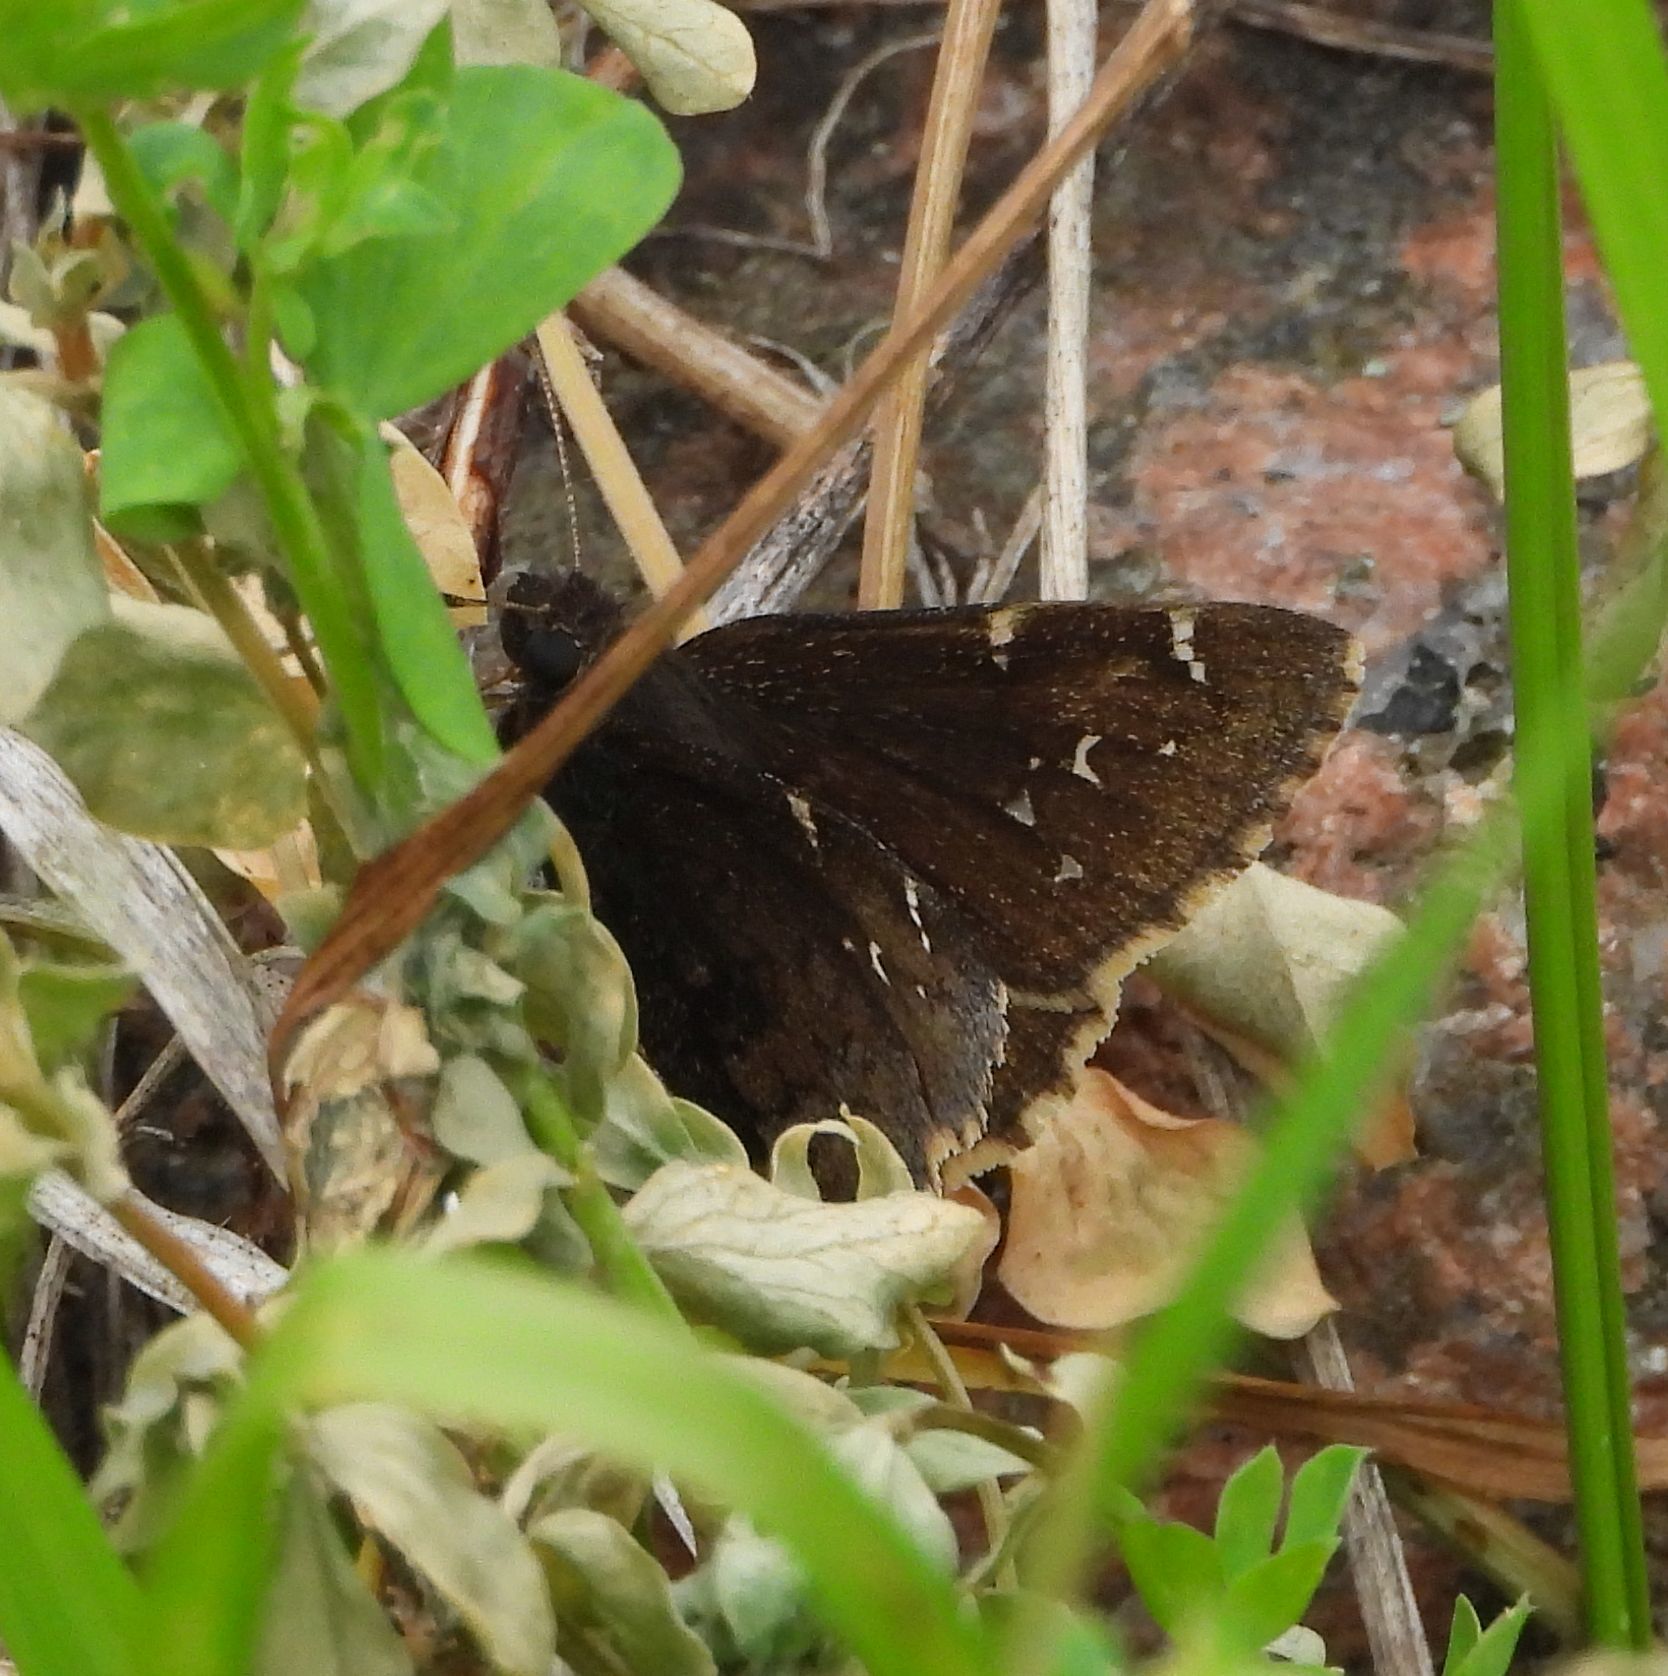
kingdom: Animalia
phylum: Arthropoda
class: Insecta
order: Lepidoptera
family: Hesperiidae
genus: Thorybes
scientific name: Thorybes pylades
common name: Northern cloudywing
